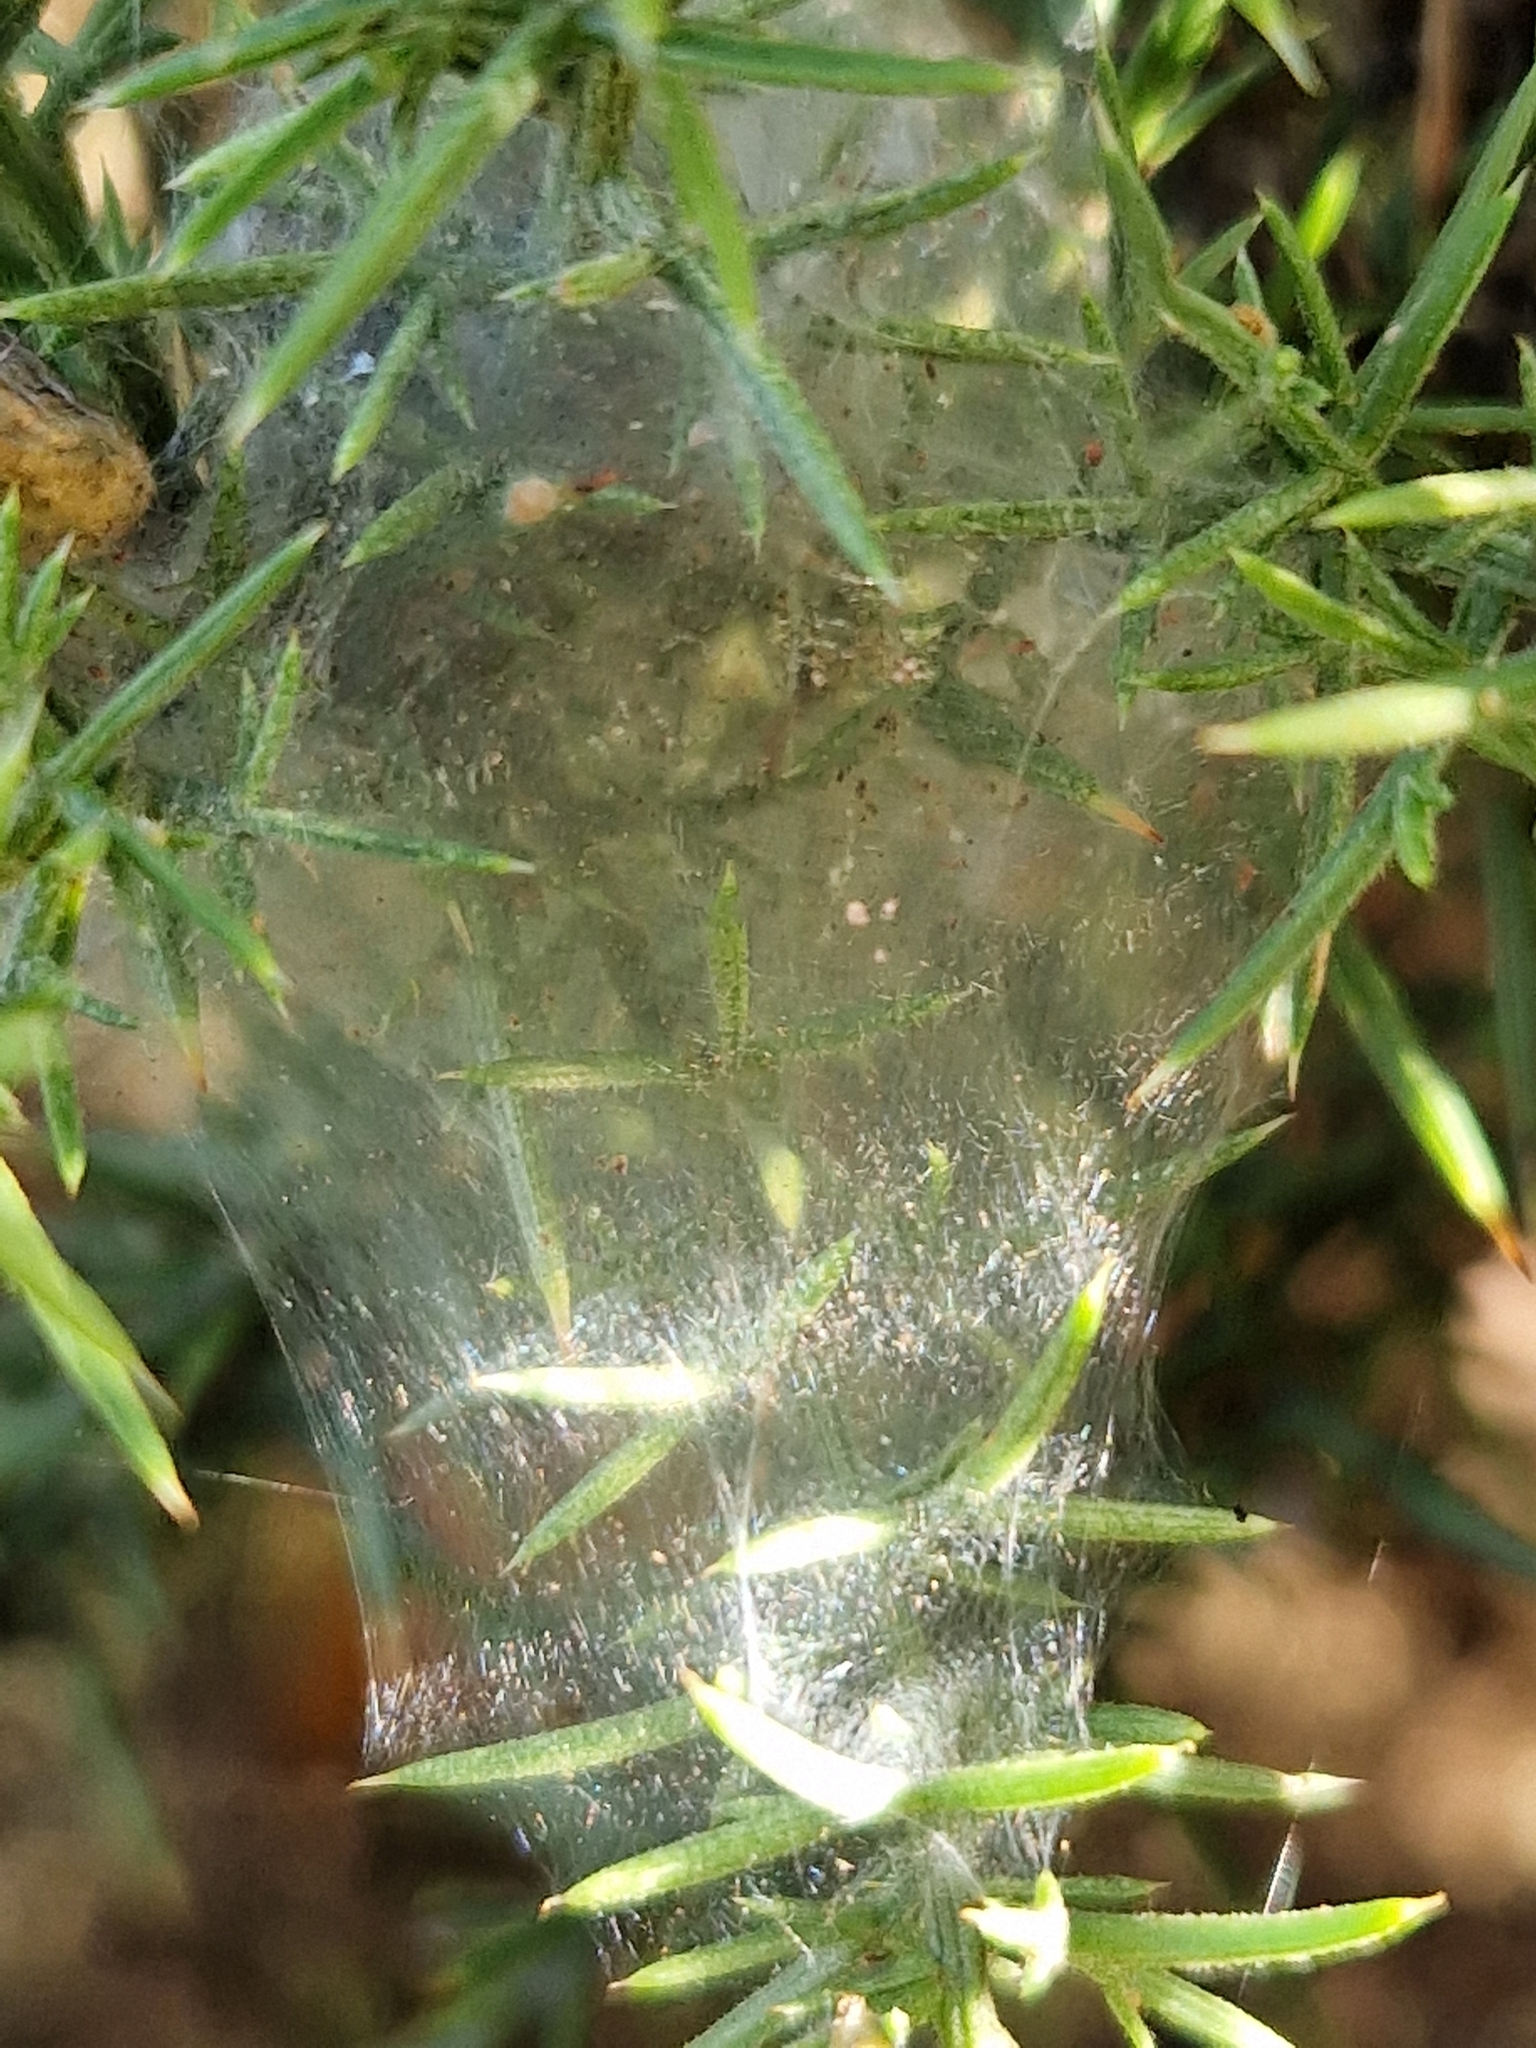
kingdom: Animalia
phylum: Arthropoda
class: Arachnida
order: Trombidiformes
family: Tetranychidae
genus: Tetranychus
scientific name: Tetranychus lintearius
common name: Gorse spider mite
